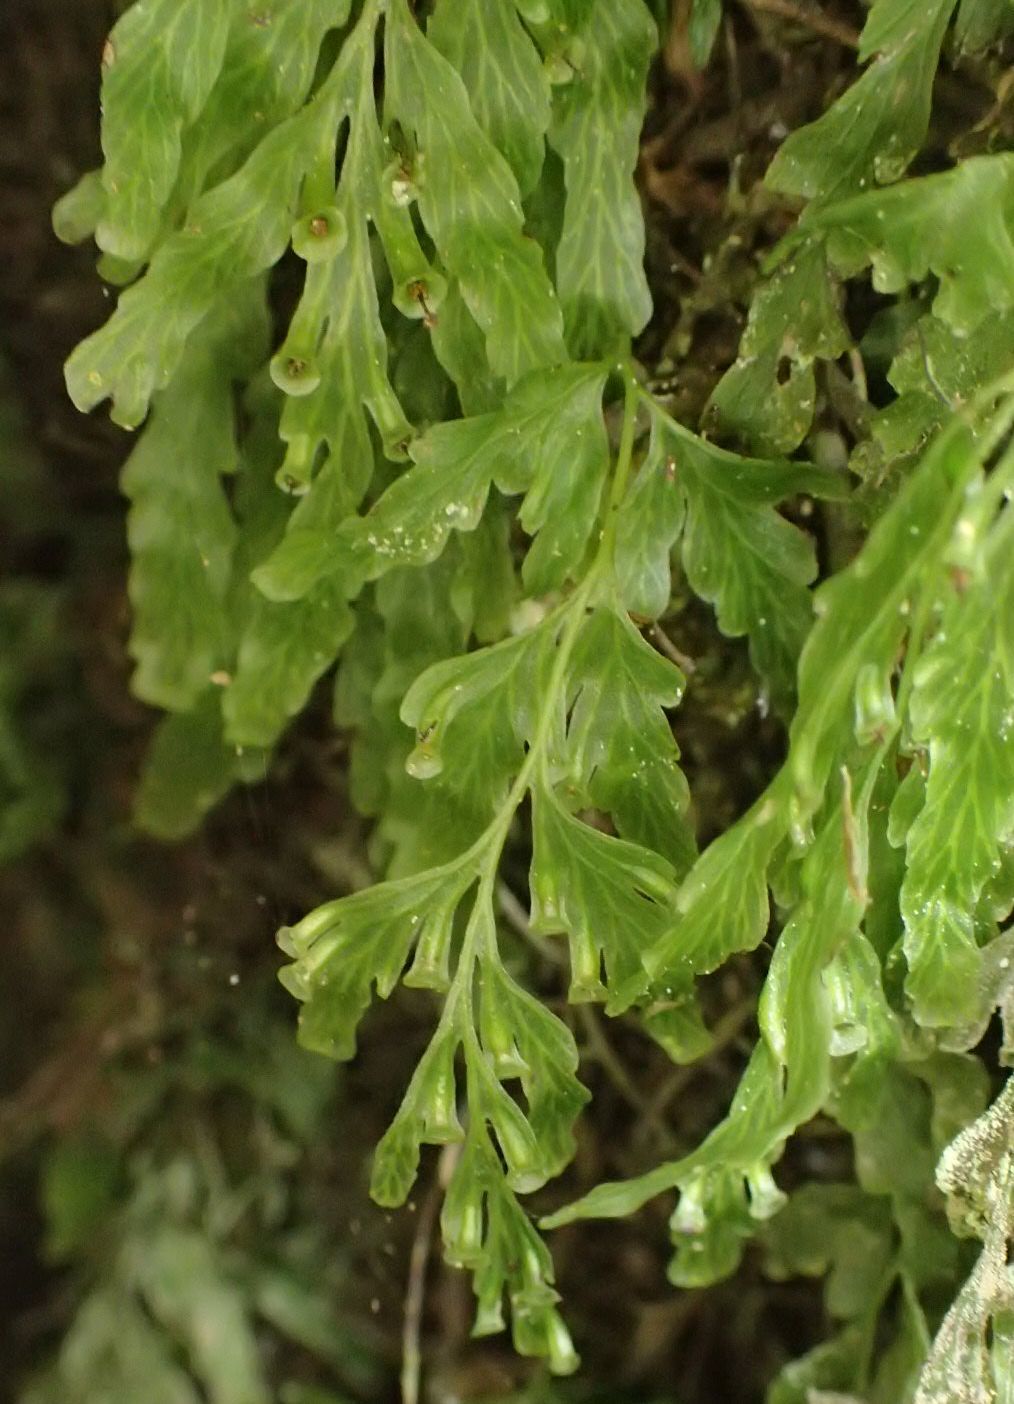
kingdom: Plantae
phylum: Tracheophyta
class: Polypodiopsida
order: Hymenophyllales
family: Hymenophyllaceae
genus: Polyphlebium
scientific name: Polyphlebium venosum
